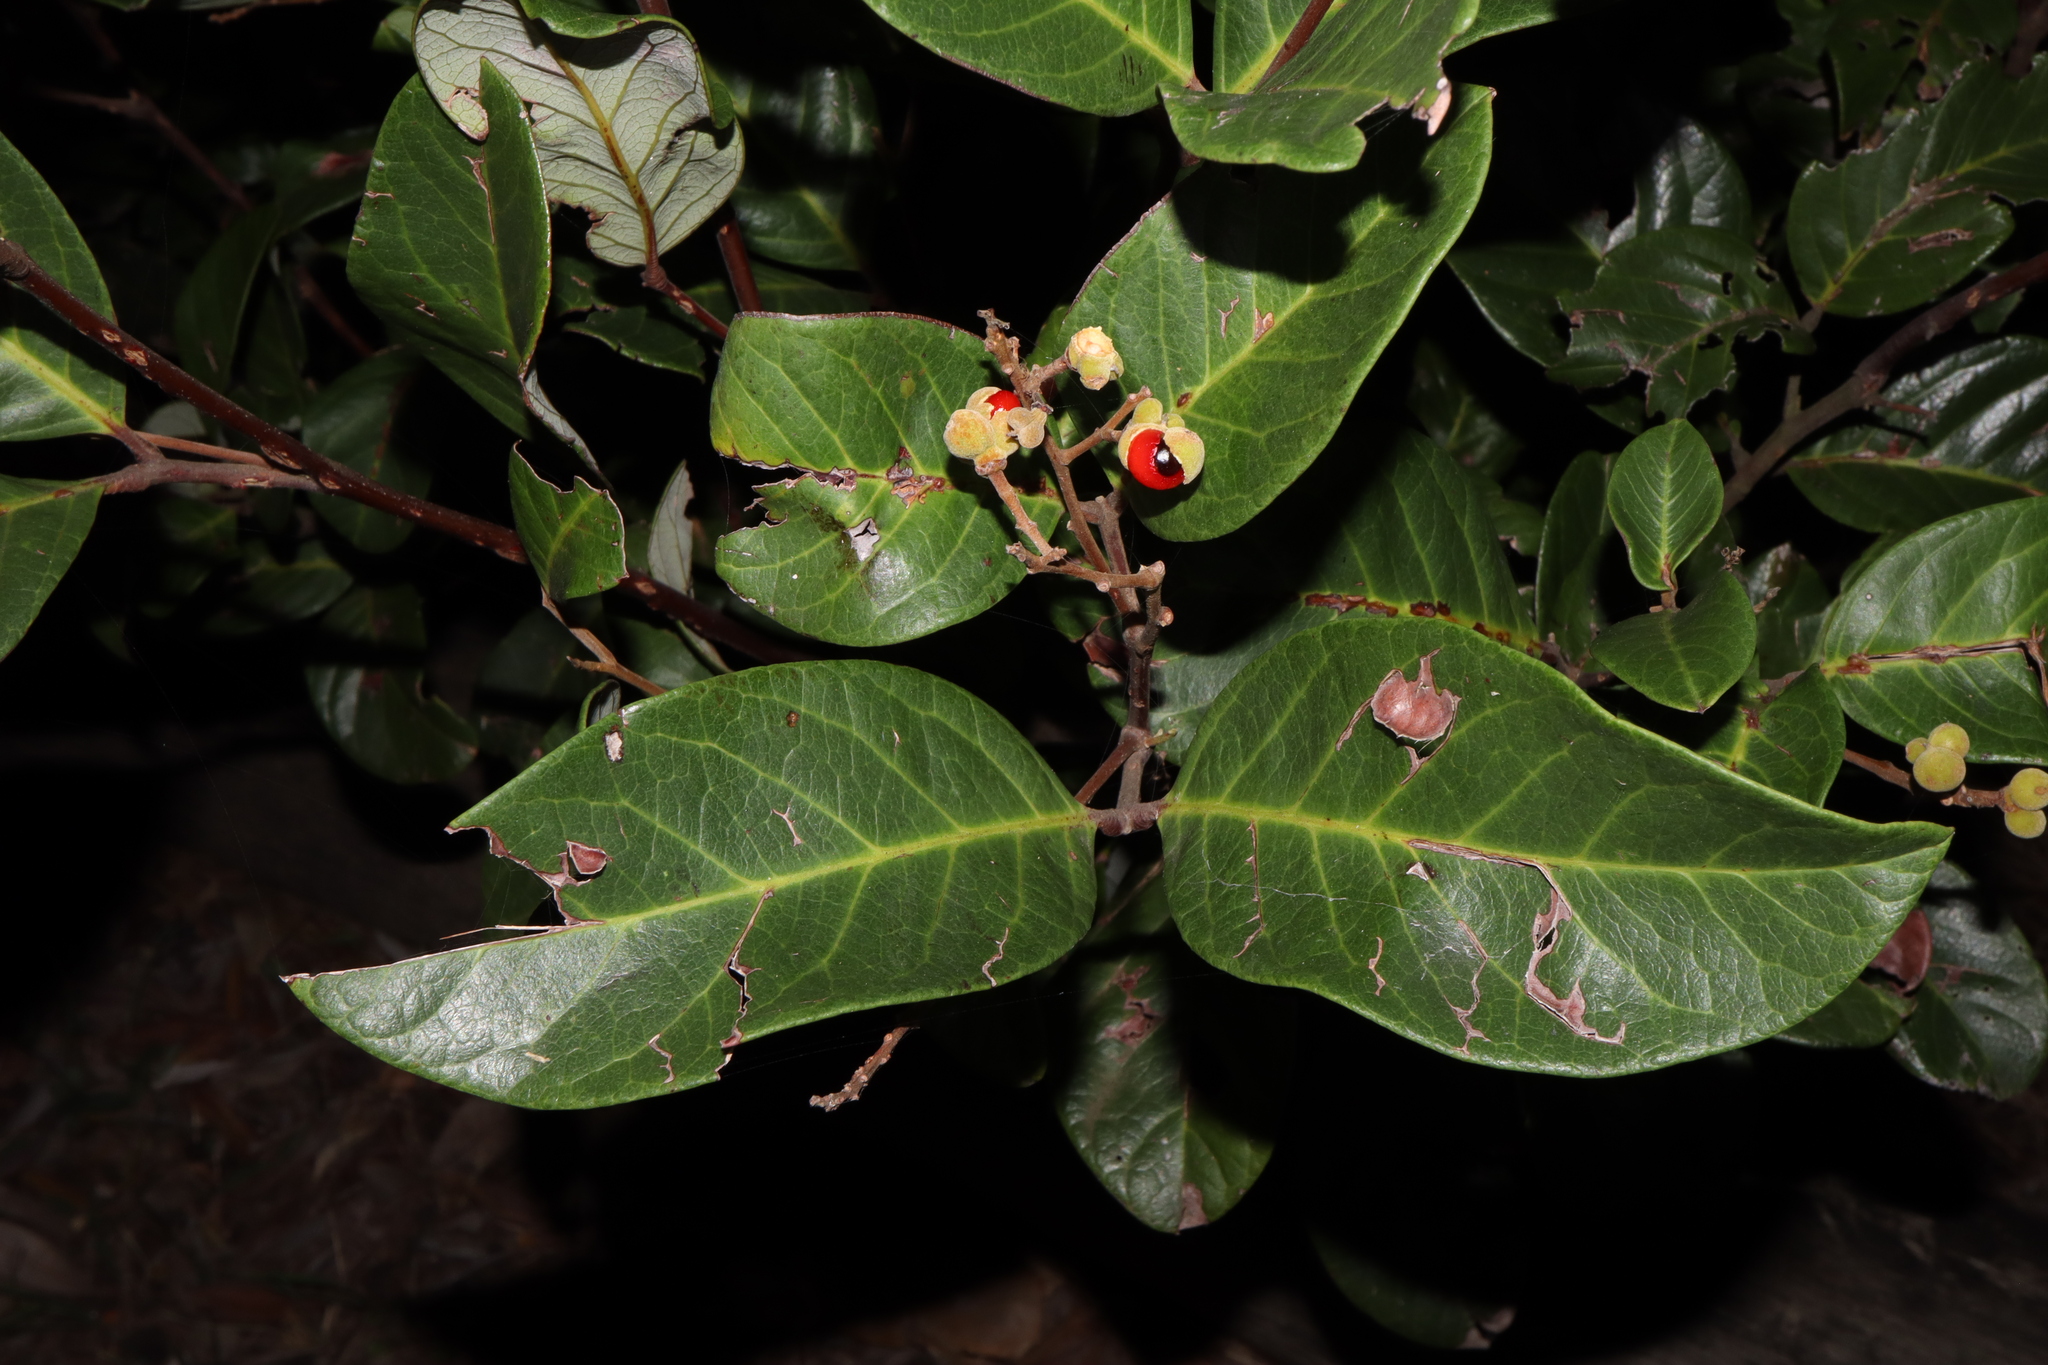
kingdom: Plantae
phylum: Tracheophyta
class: Magnoliopsida
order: Sapindales
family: Sapindaceae
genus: Alectryon
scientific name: Alectryon coriaceus
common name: Beach alectryon
